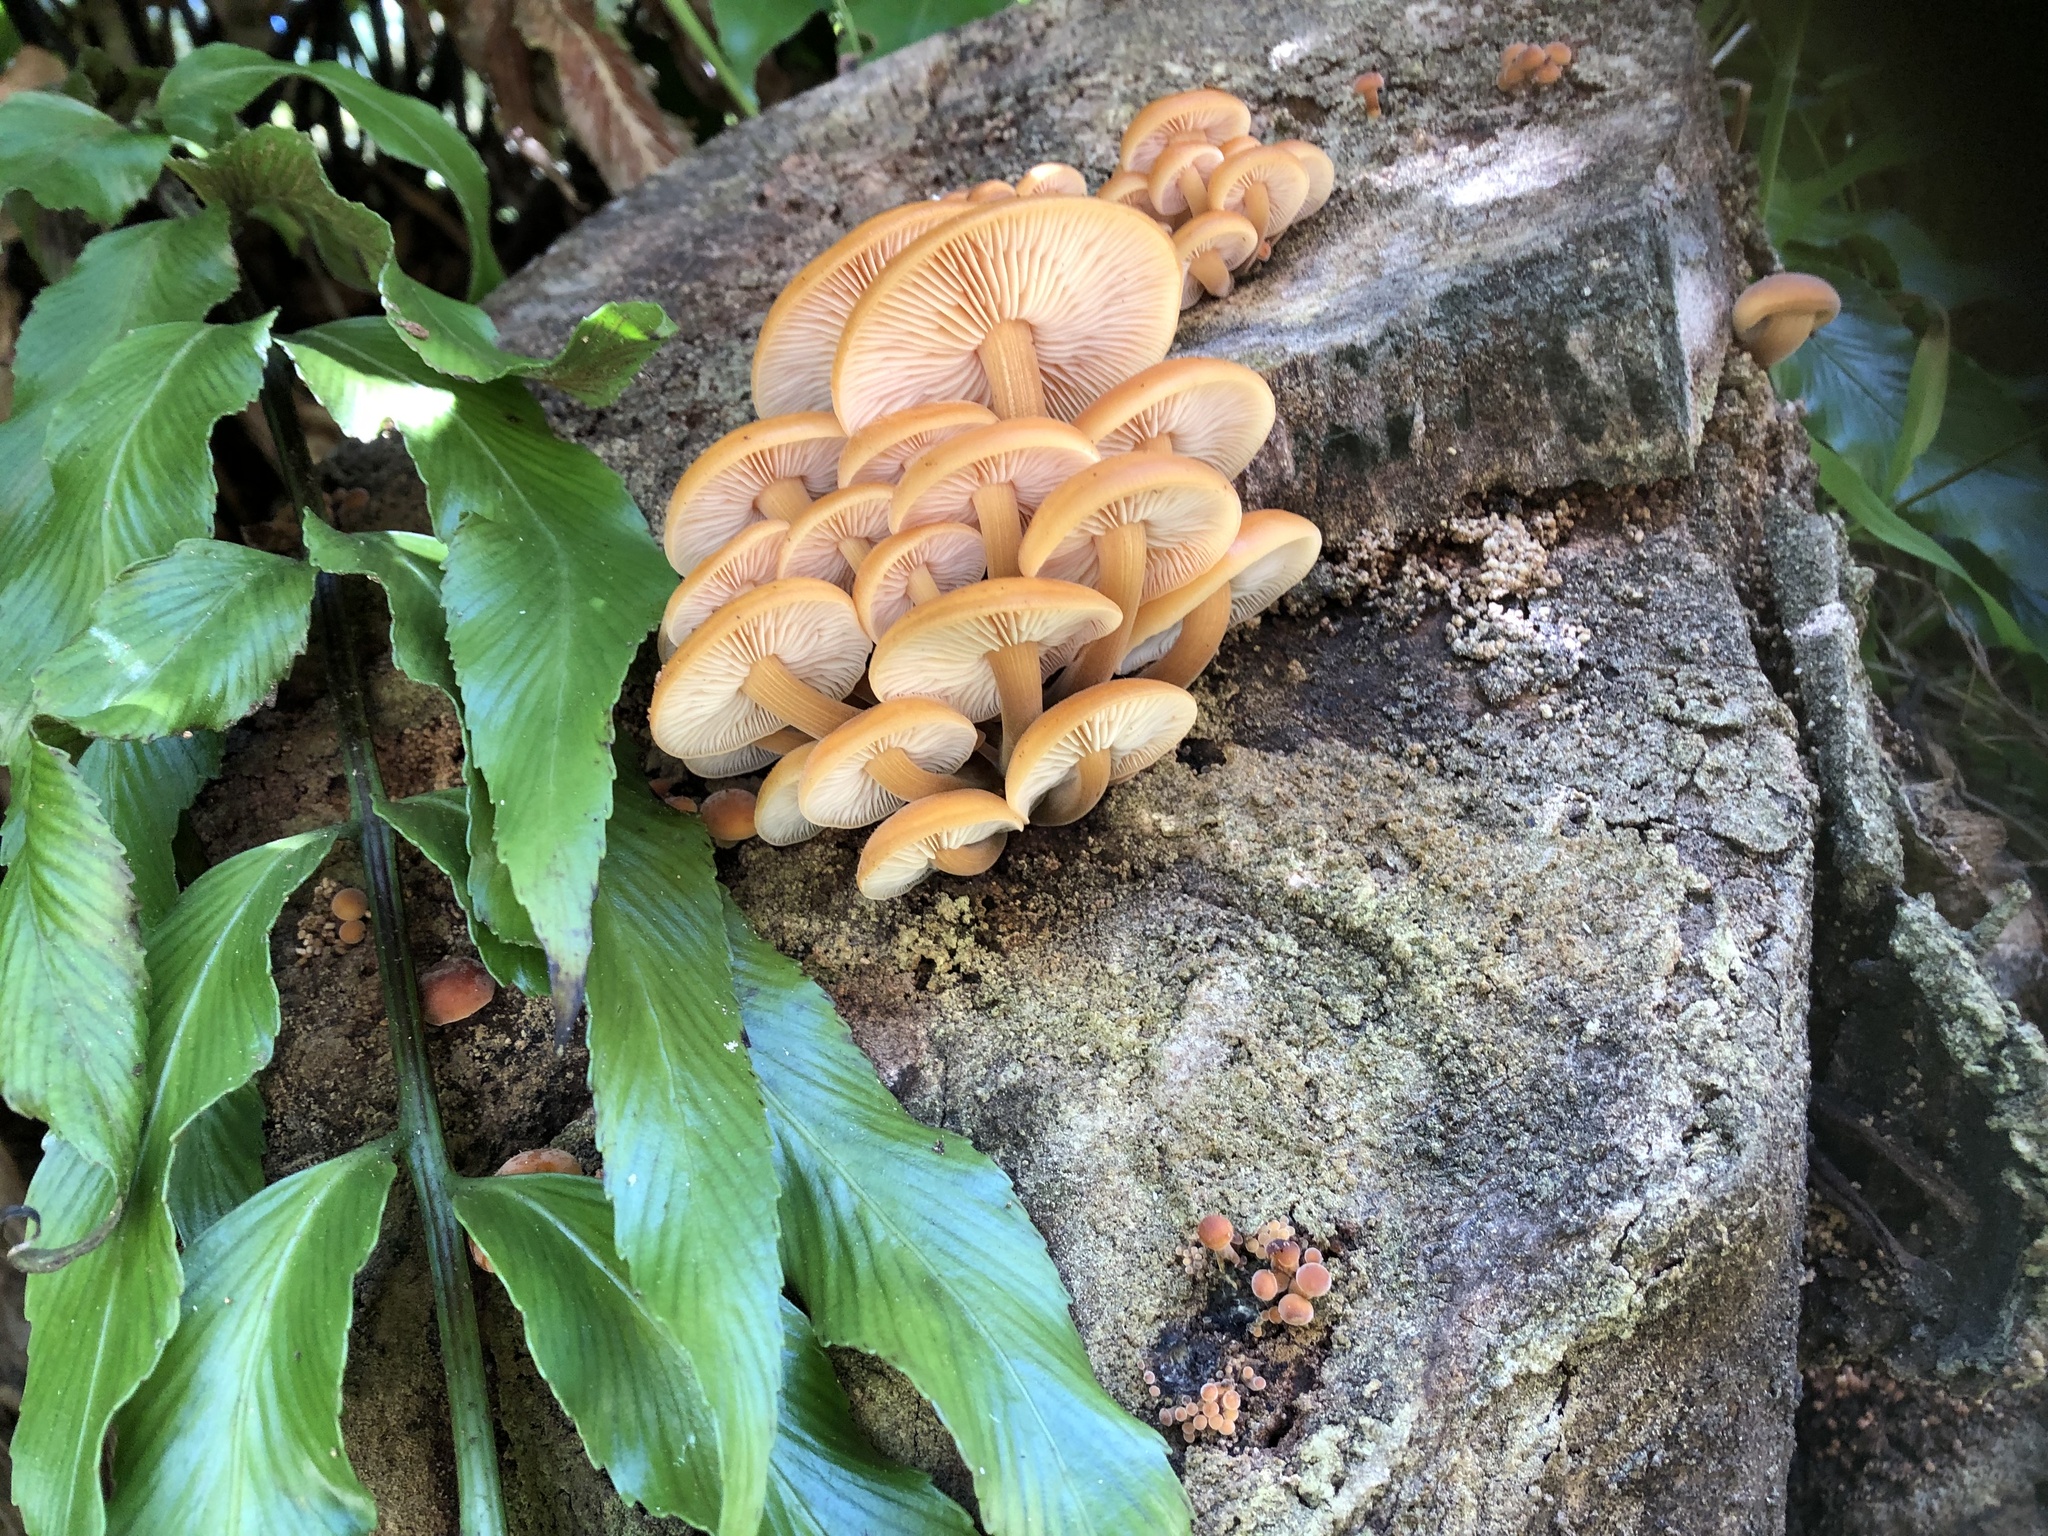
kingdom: Fungi
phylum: Basidiomycota
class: Agaricomycetes
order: Agaricales
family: Physalacriaceae
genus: Flammulina
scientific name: Flammulina velutipes
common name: Velvet shank
